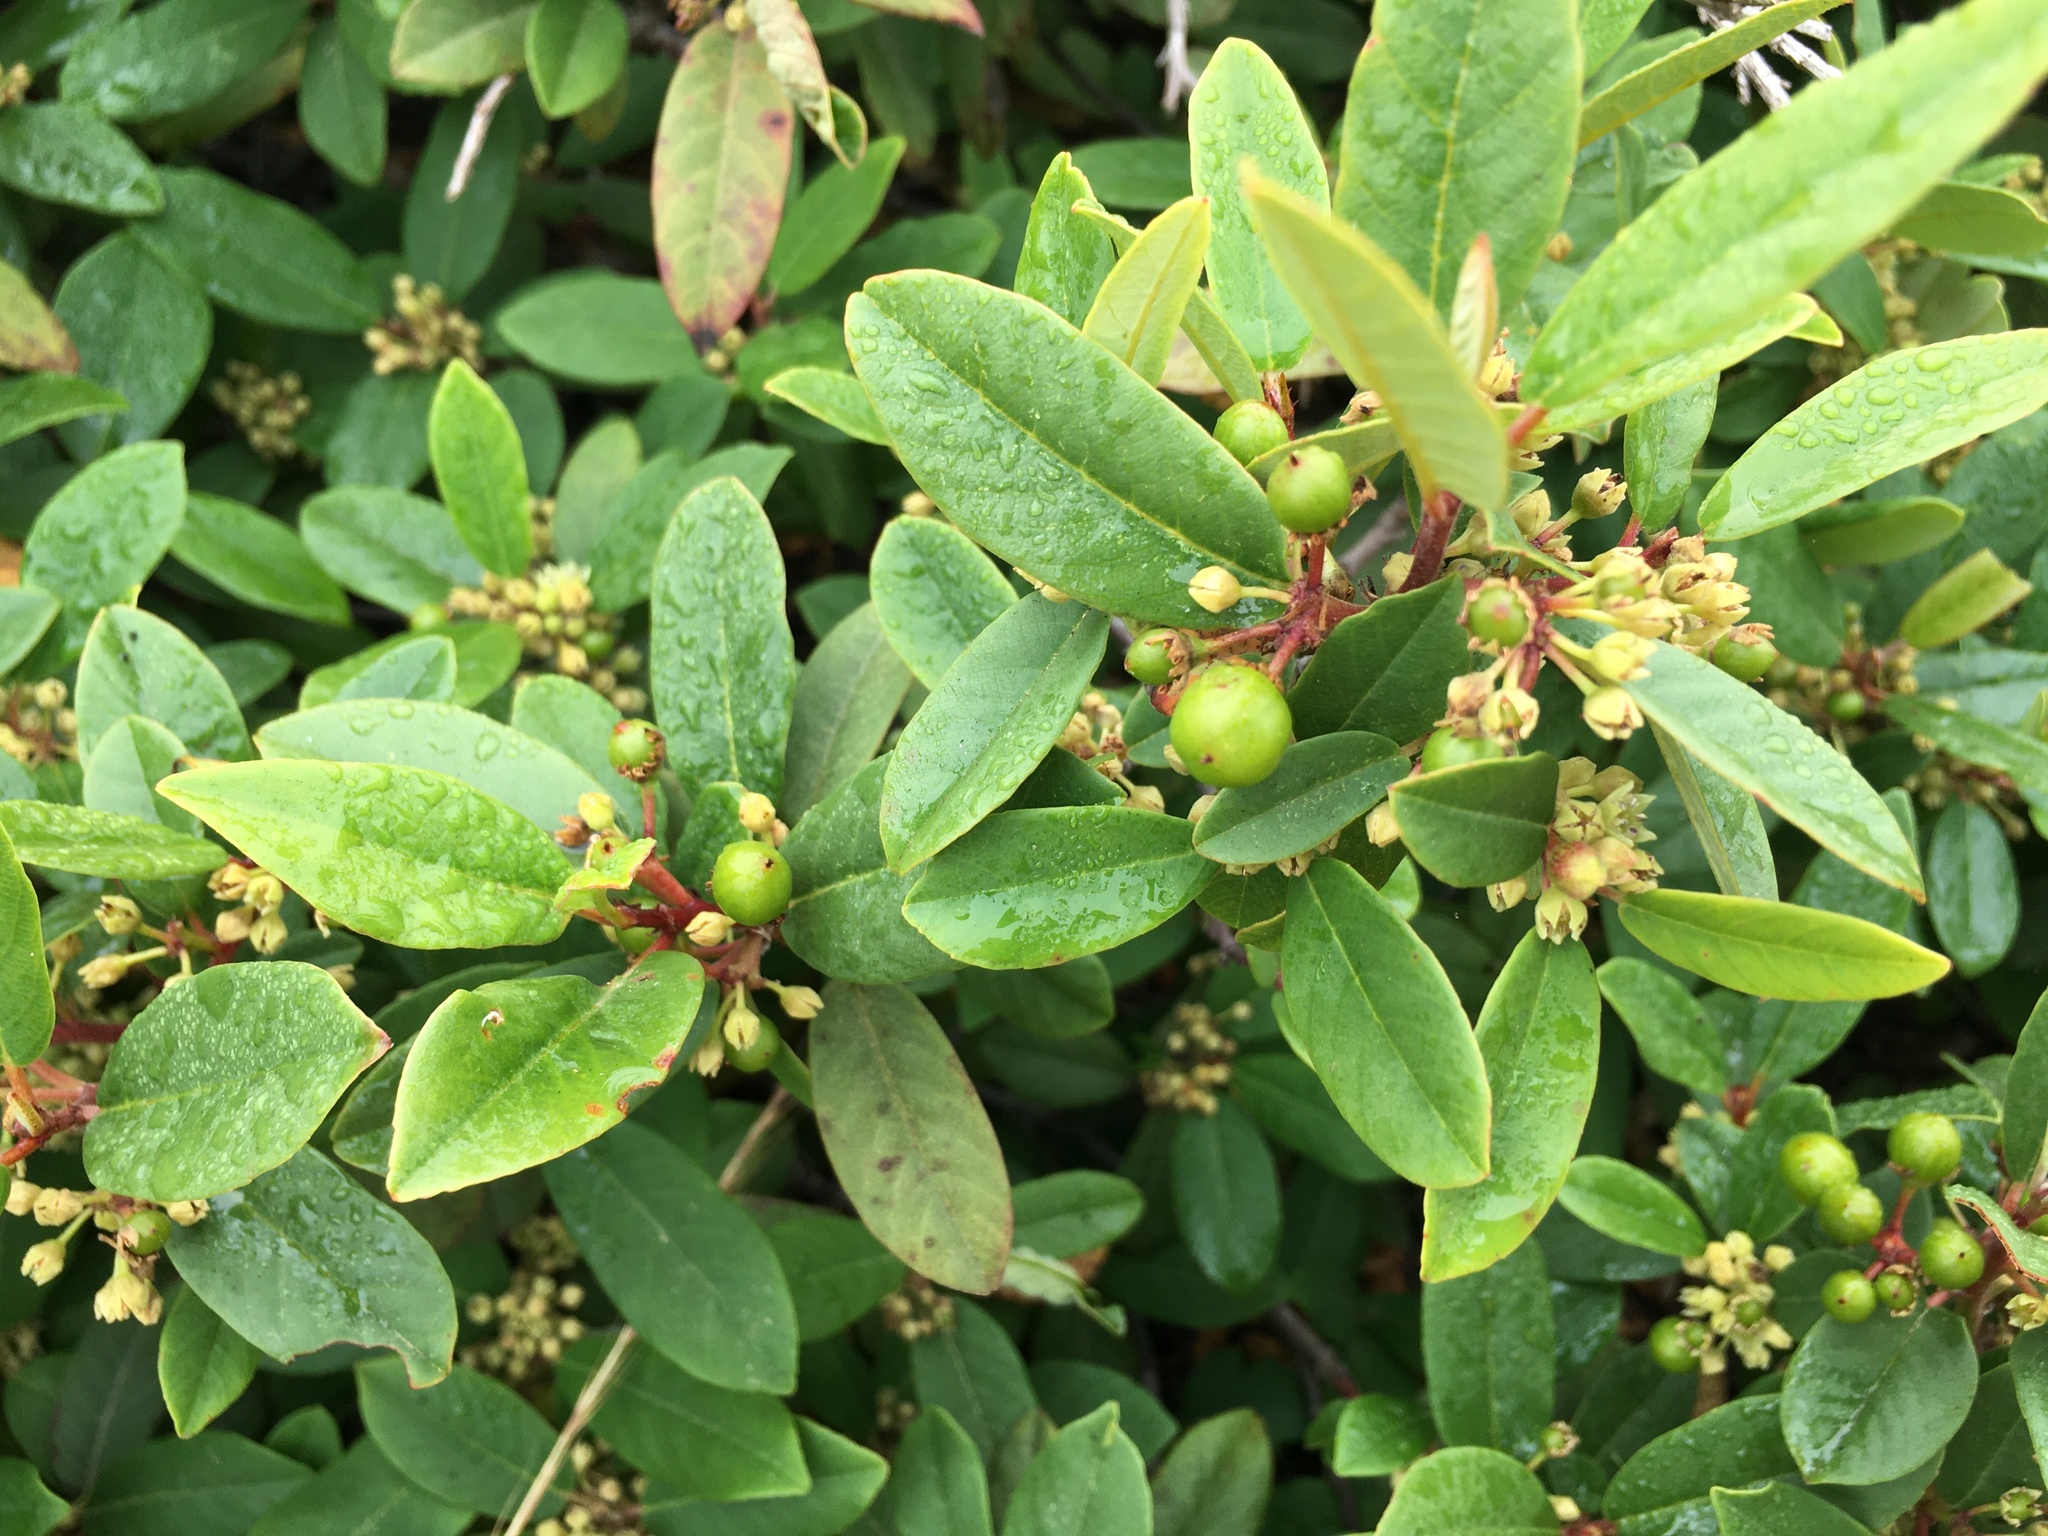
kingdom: Plantae
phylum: Tracheophyta
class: Magnoliopsida
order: Rosales
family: Rhamnaceae
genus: Frangula
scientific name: Frangula californica
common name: California buckthorn
